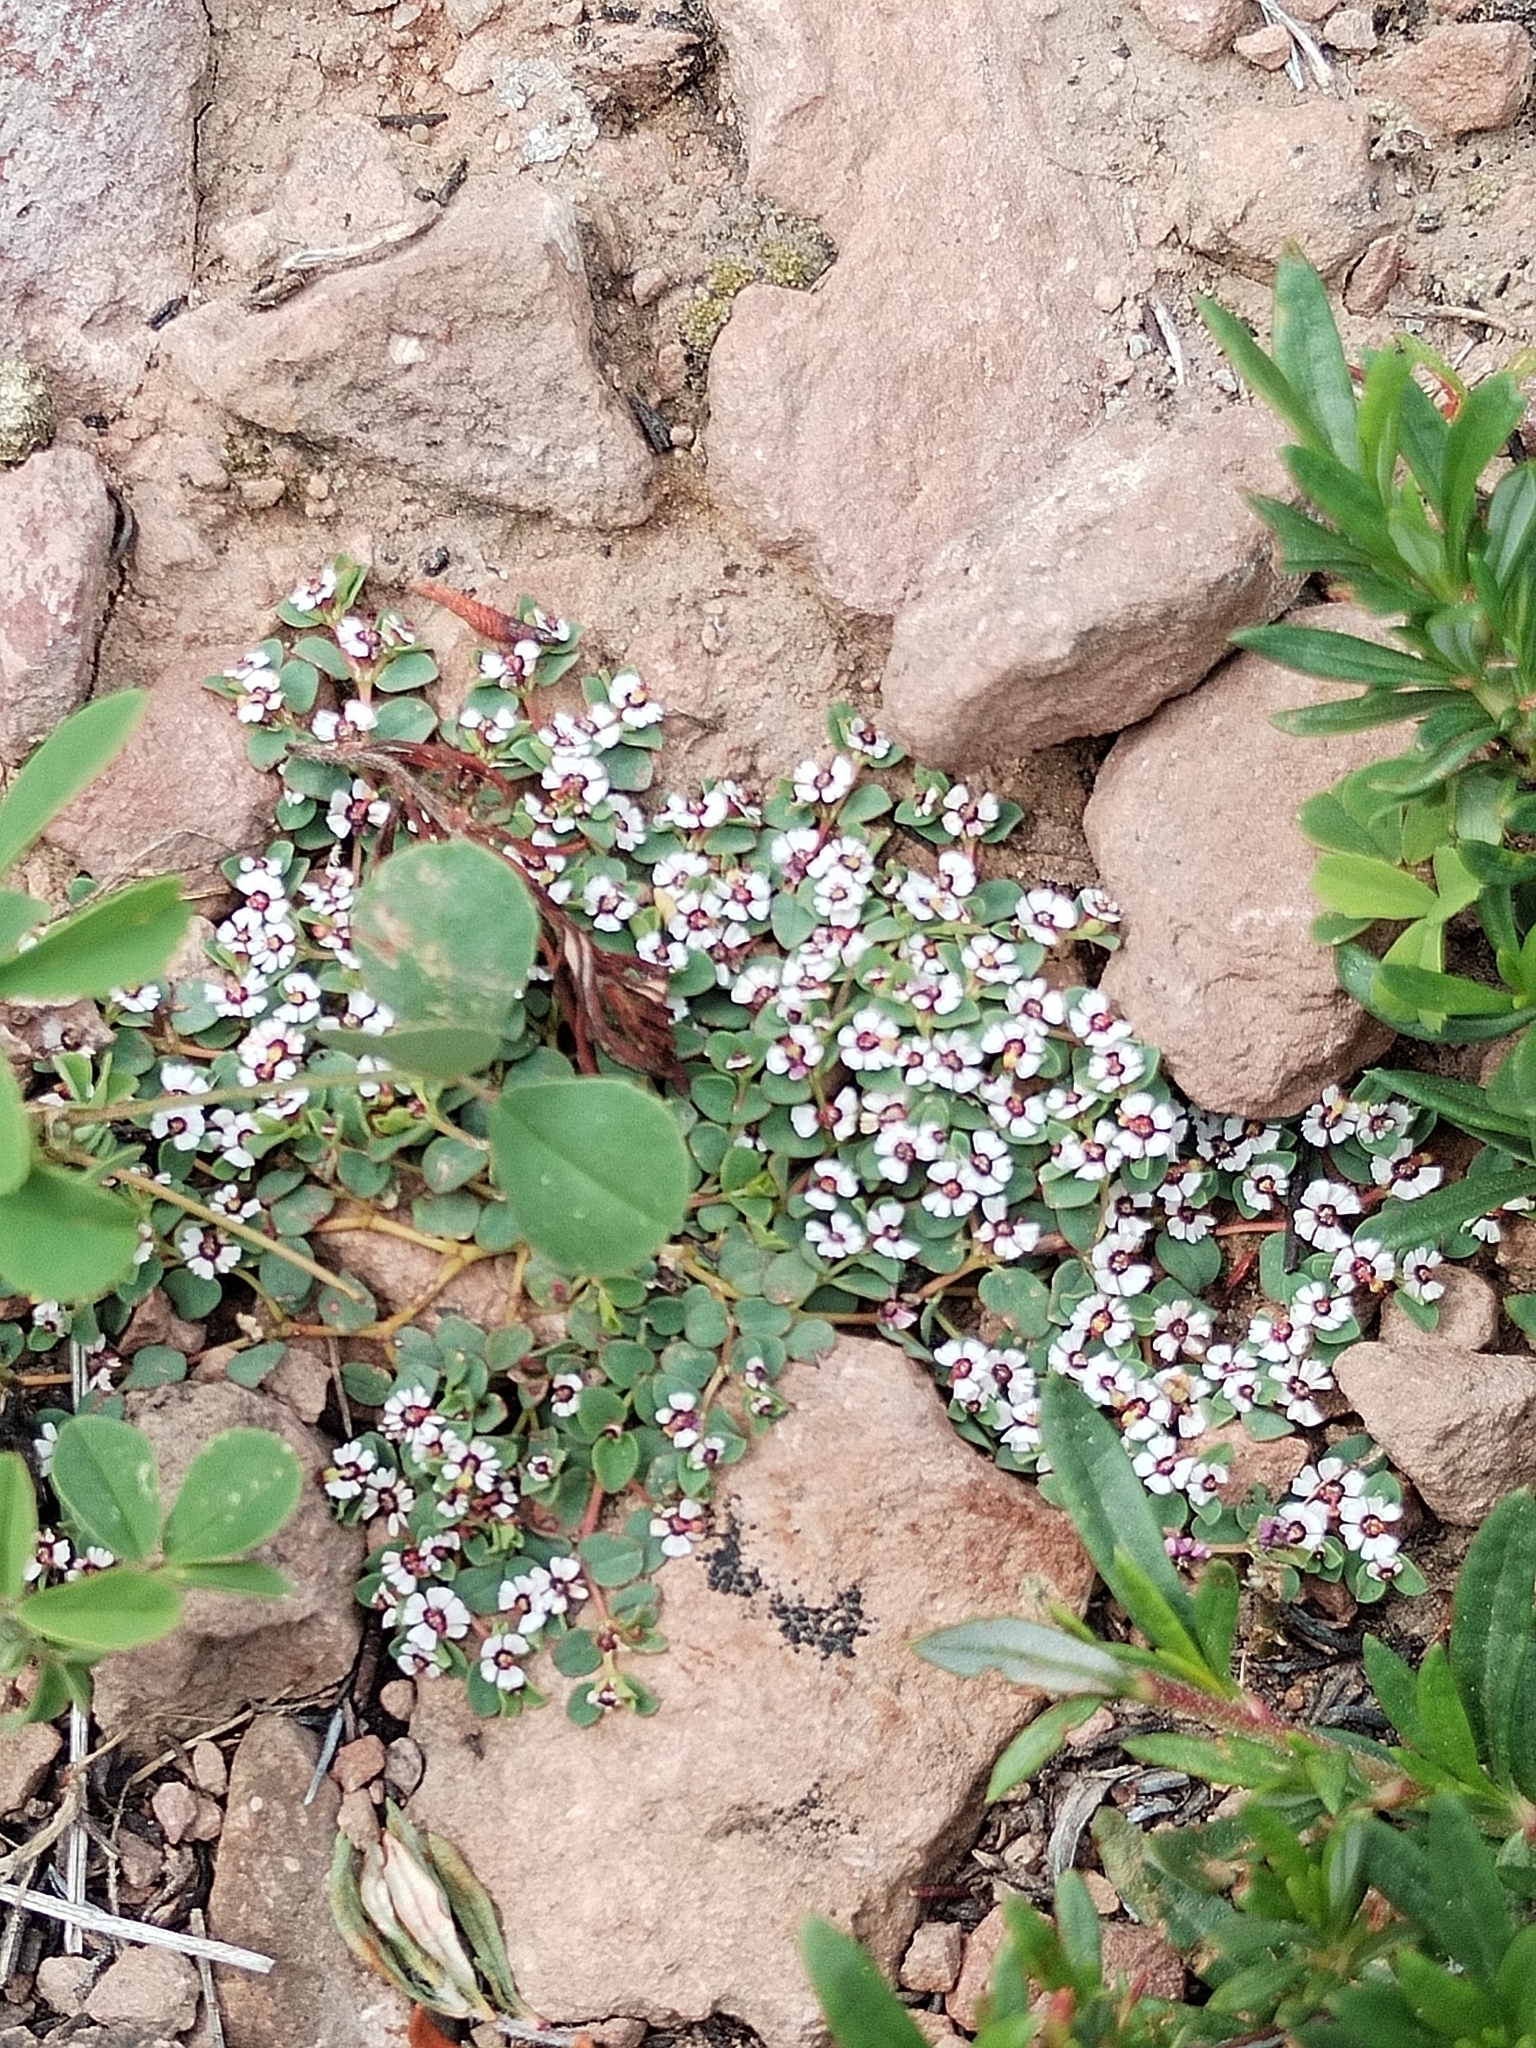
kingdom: Plantae
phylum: Tracheophyta
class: Magnoliopsida
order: Malpighiales
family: Euphorbiaceae
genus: Euphorbia
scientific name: Euphorbia polycarpa
